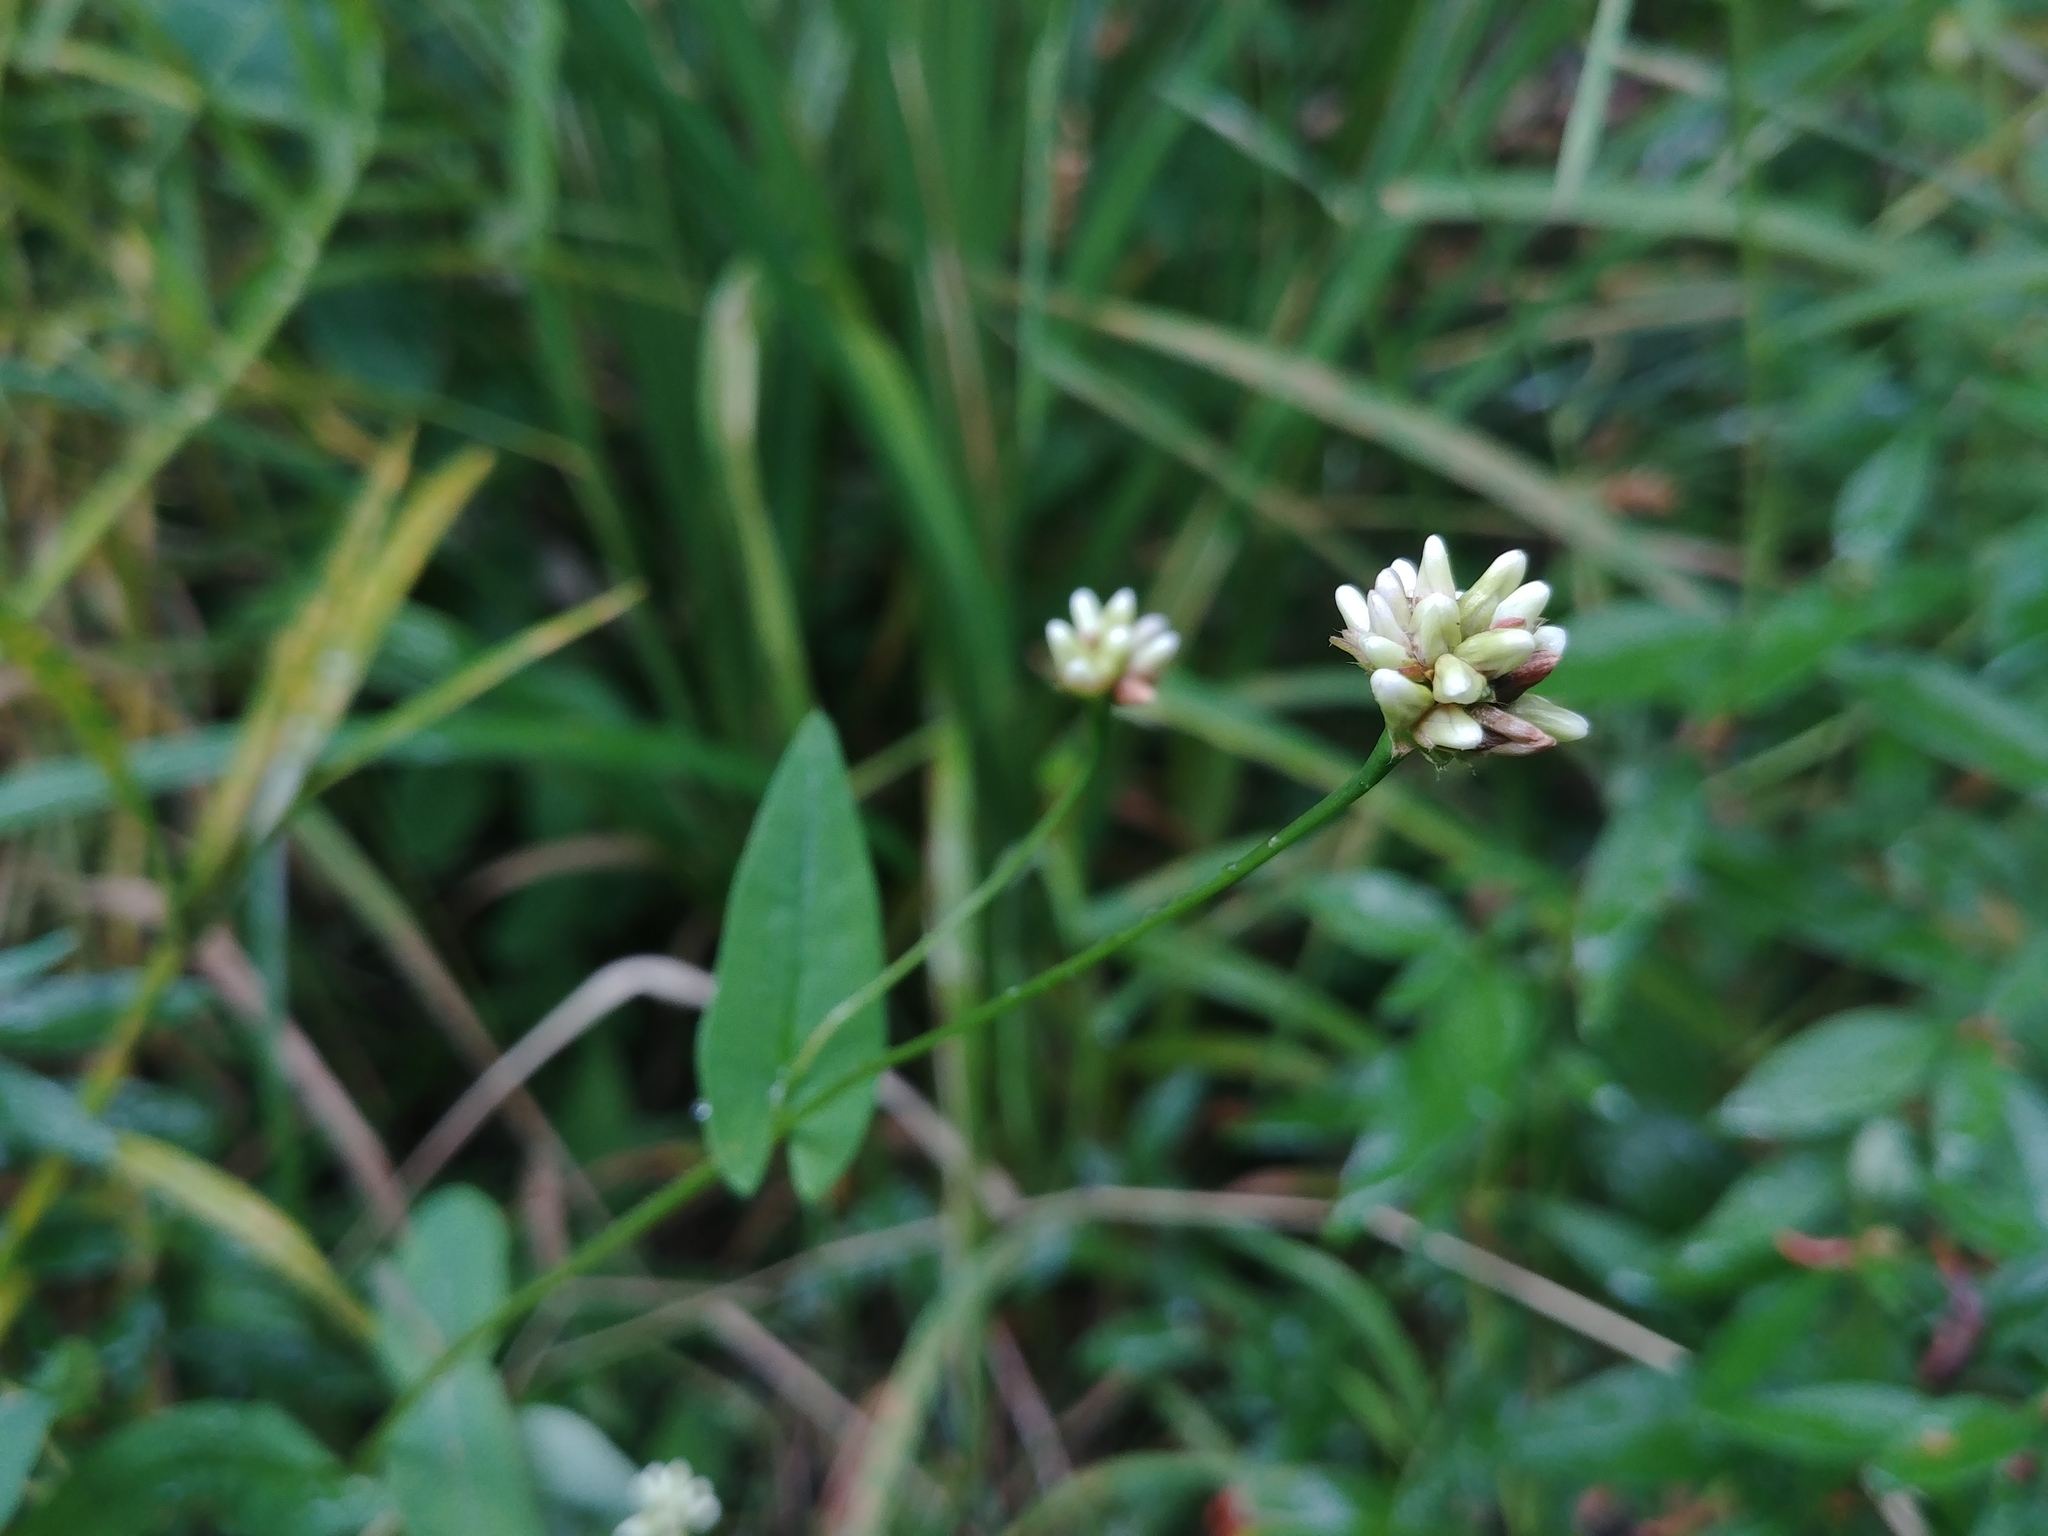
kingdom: Plantae
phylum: Tracheophyta
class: Magnoliopsida
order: Caryophyllales
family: Polygonaceae
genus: Persicaria
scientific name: Persicaria sagittata
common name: American tearthumb
